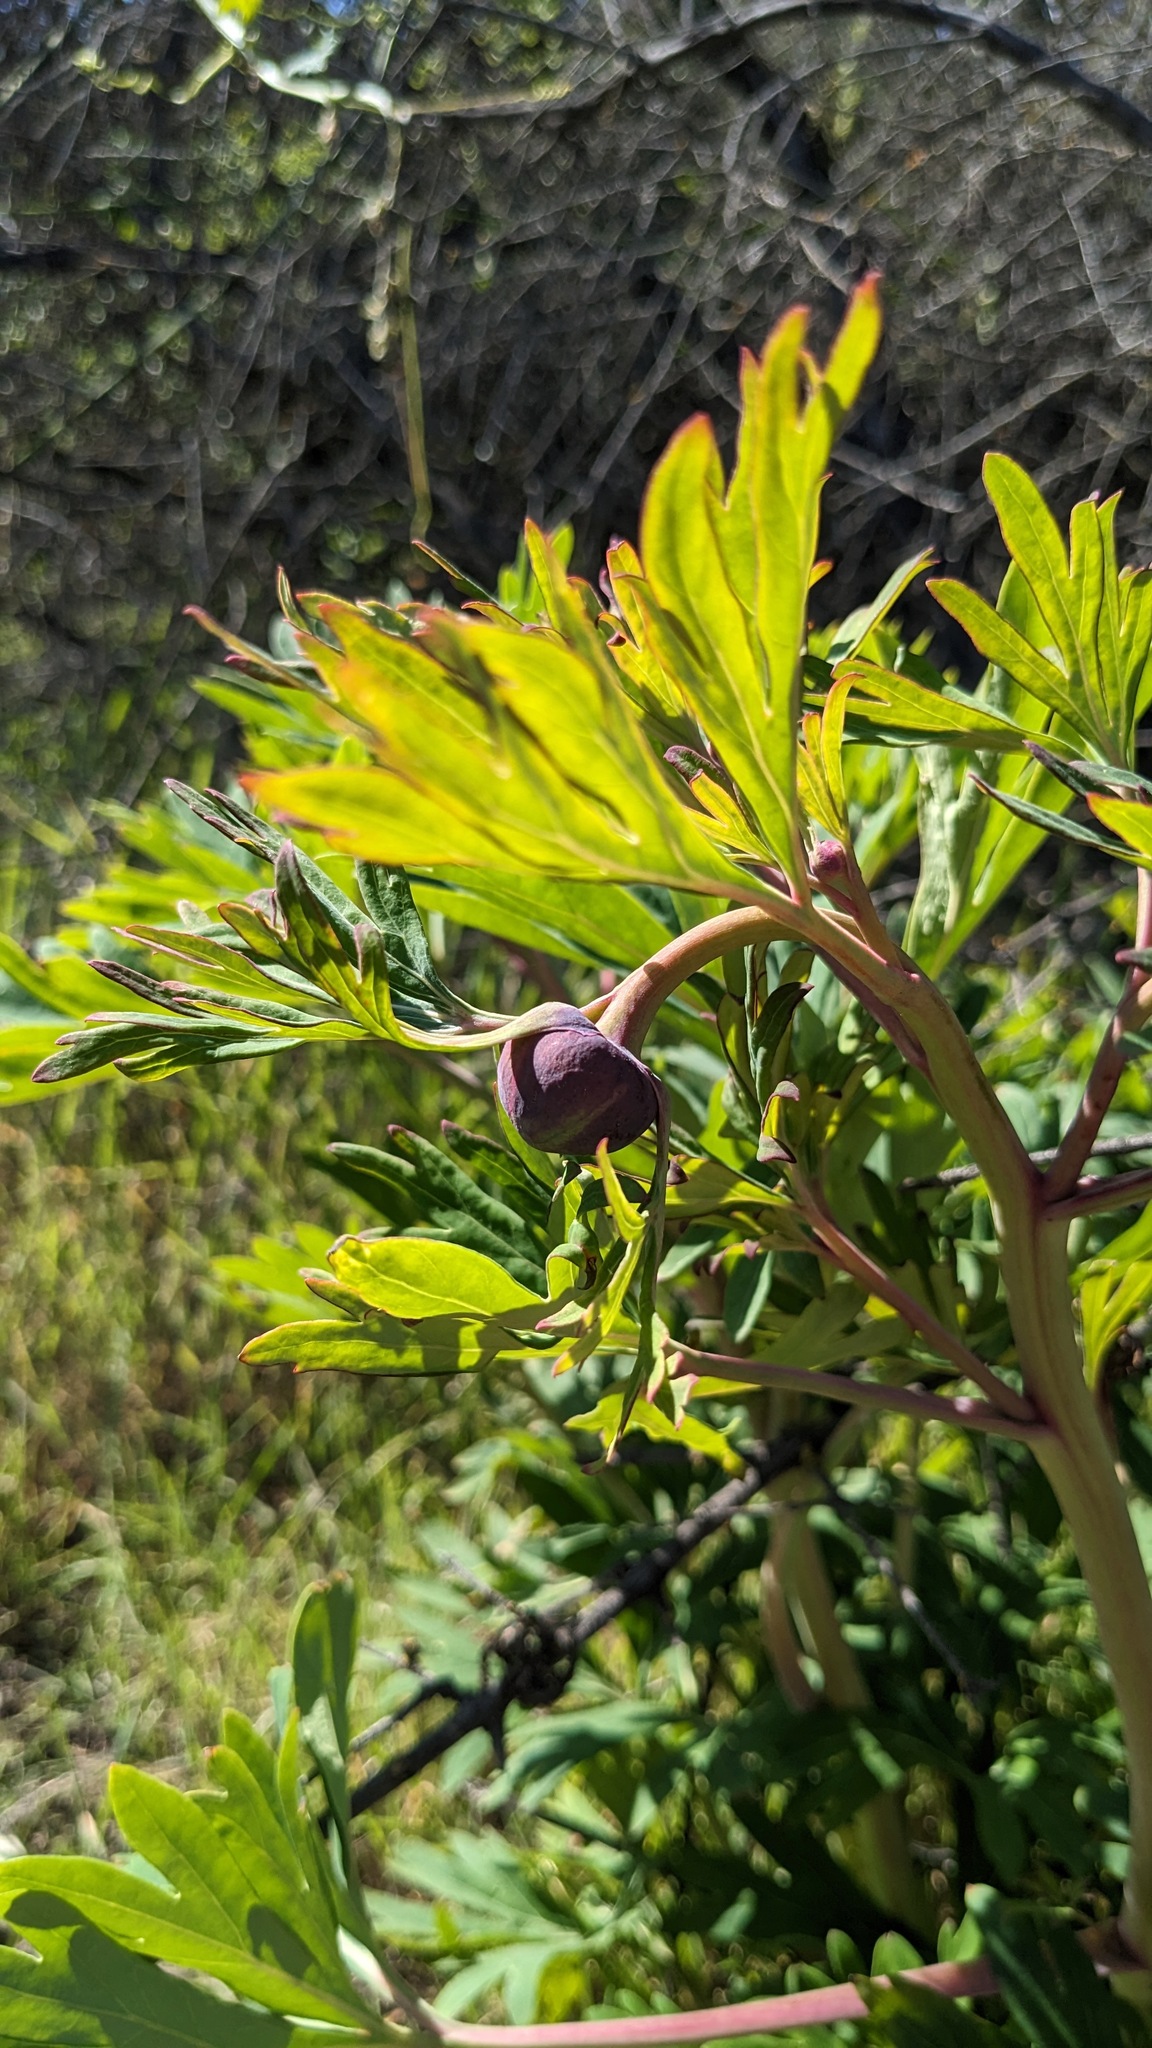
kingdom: Plantae
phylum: Tracheophyta
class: Magnoliopsida
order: Saxifragales
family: Paeoniaceae
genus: Paeonia
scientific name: Paeonia californica
